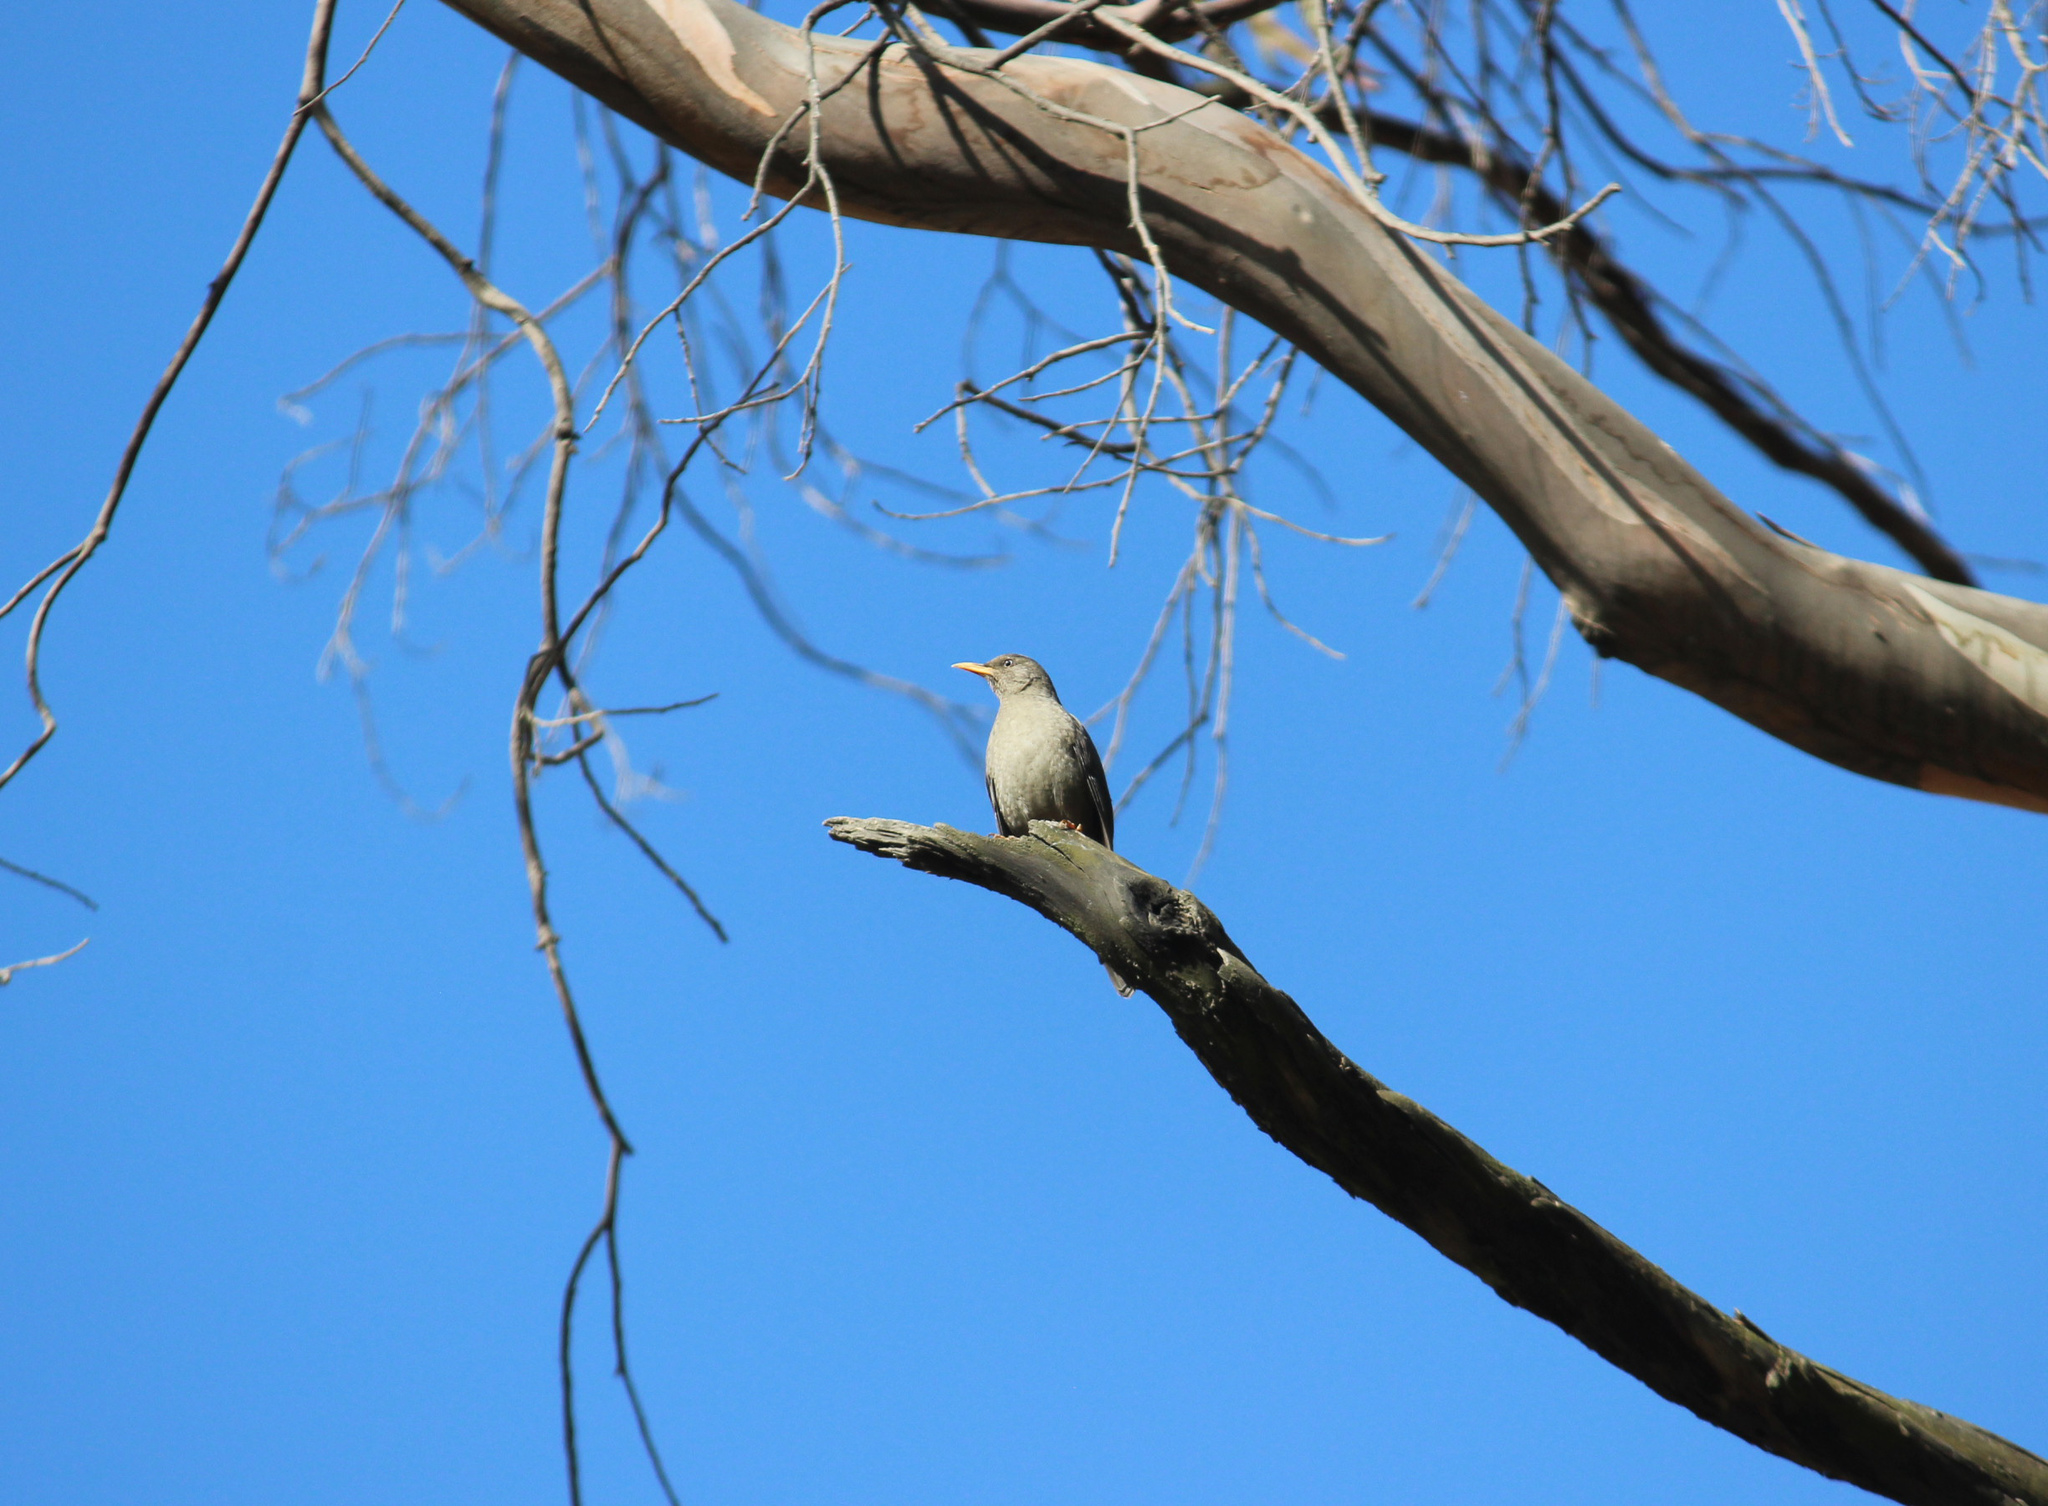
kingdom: Animalia
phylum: Chordata
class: Aves
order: Passeriformes
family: Turdidae
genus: Turdus
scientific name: Turdus chiguanco
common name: Chiguanco thrush
